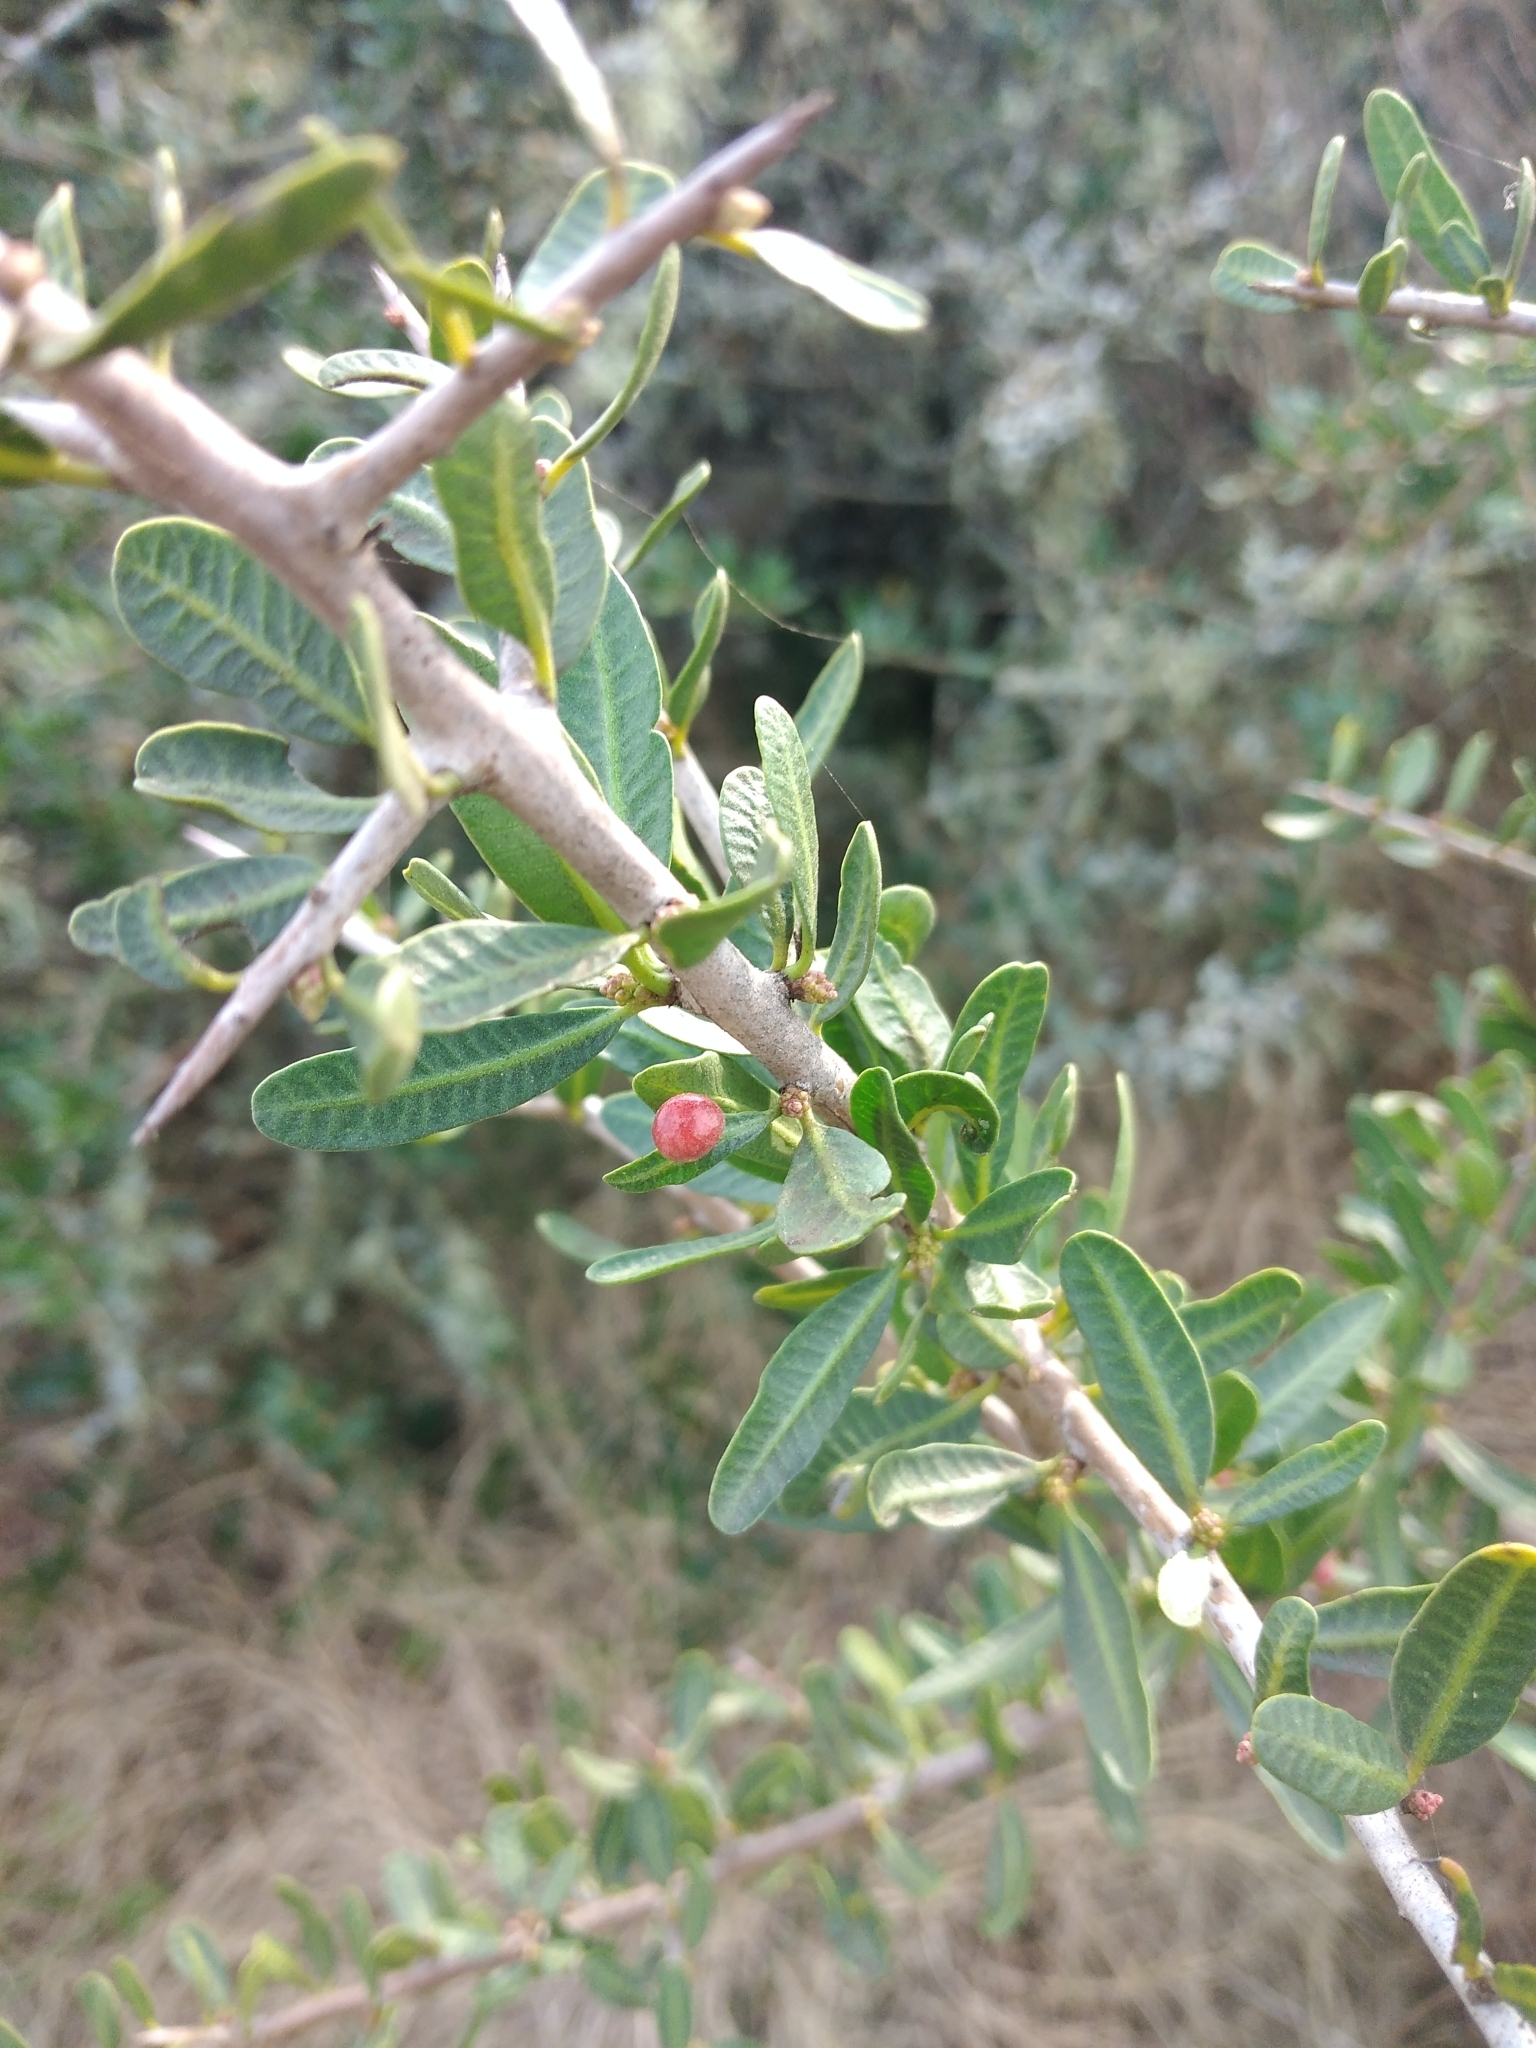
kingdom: Plantae
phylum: Tracheophyta
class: Magnoliopsida
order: Sapindales
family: Anacardiaceae
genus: Schinus
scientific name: Schinus longifolia
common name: Longleaf peppertree
